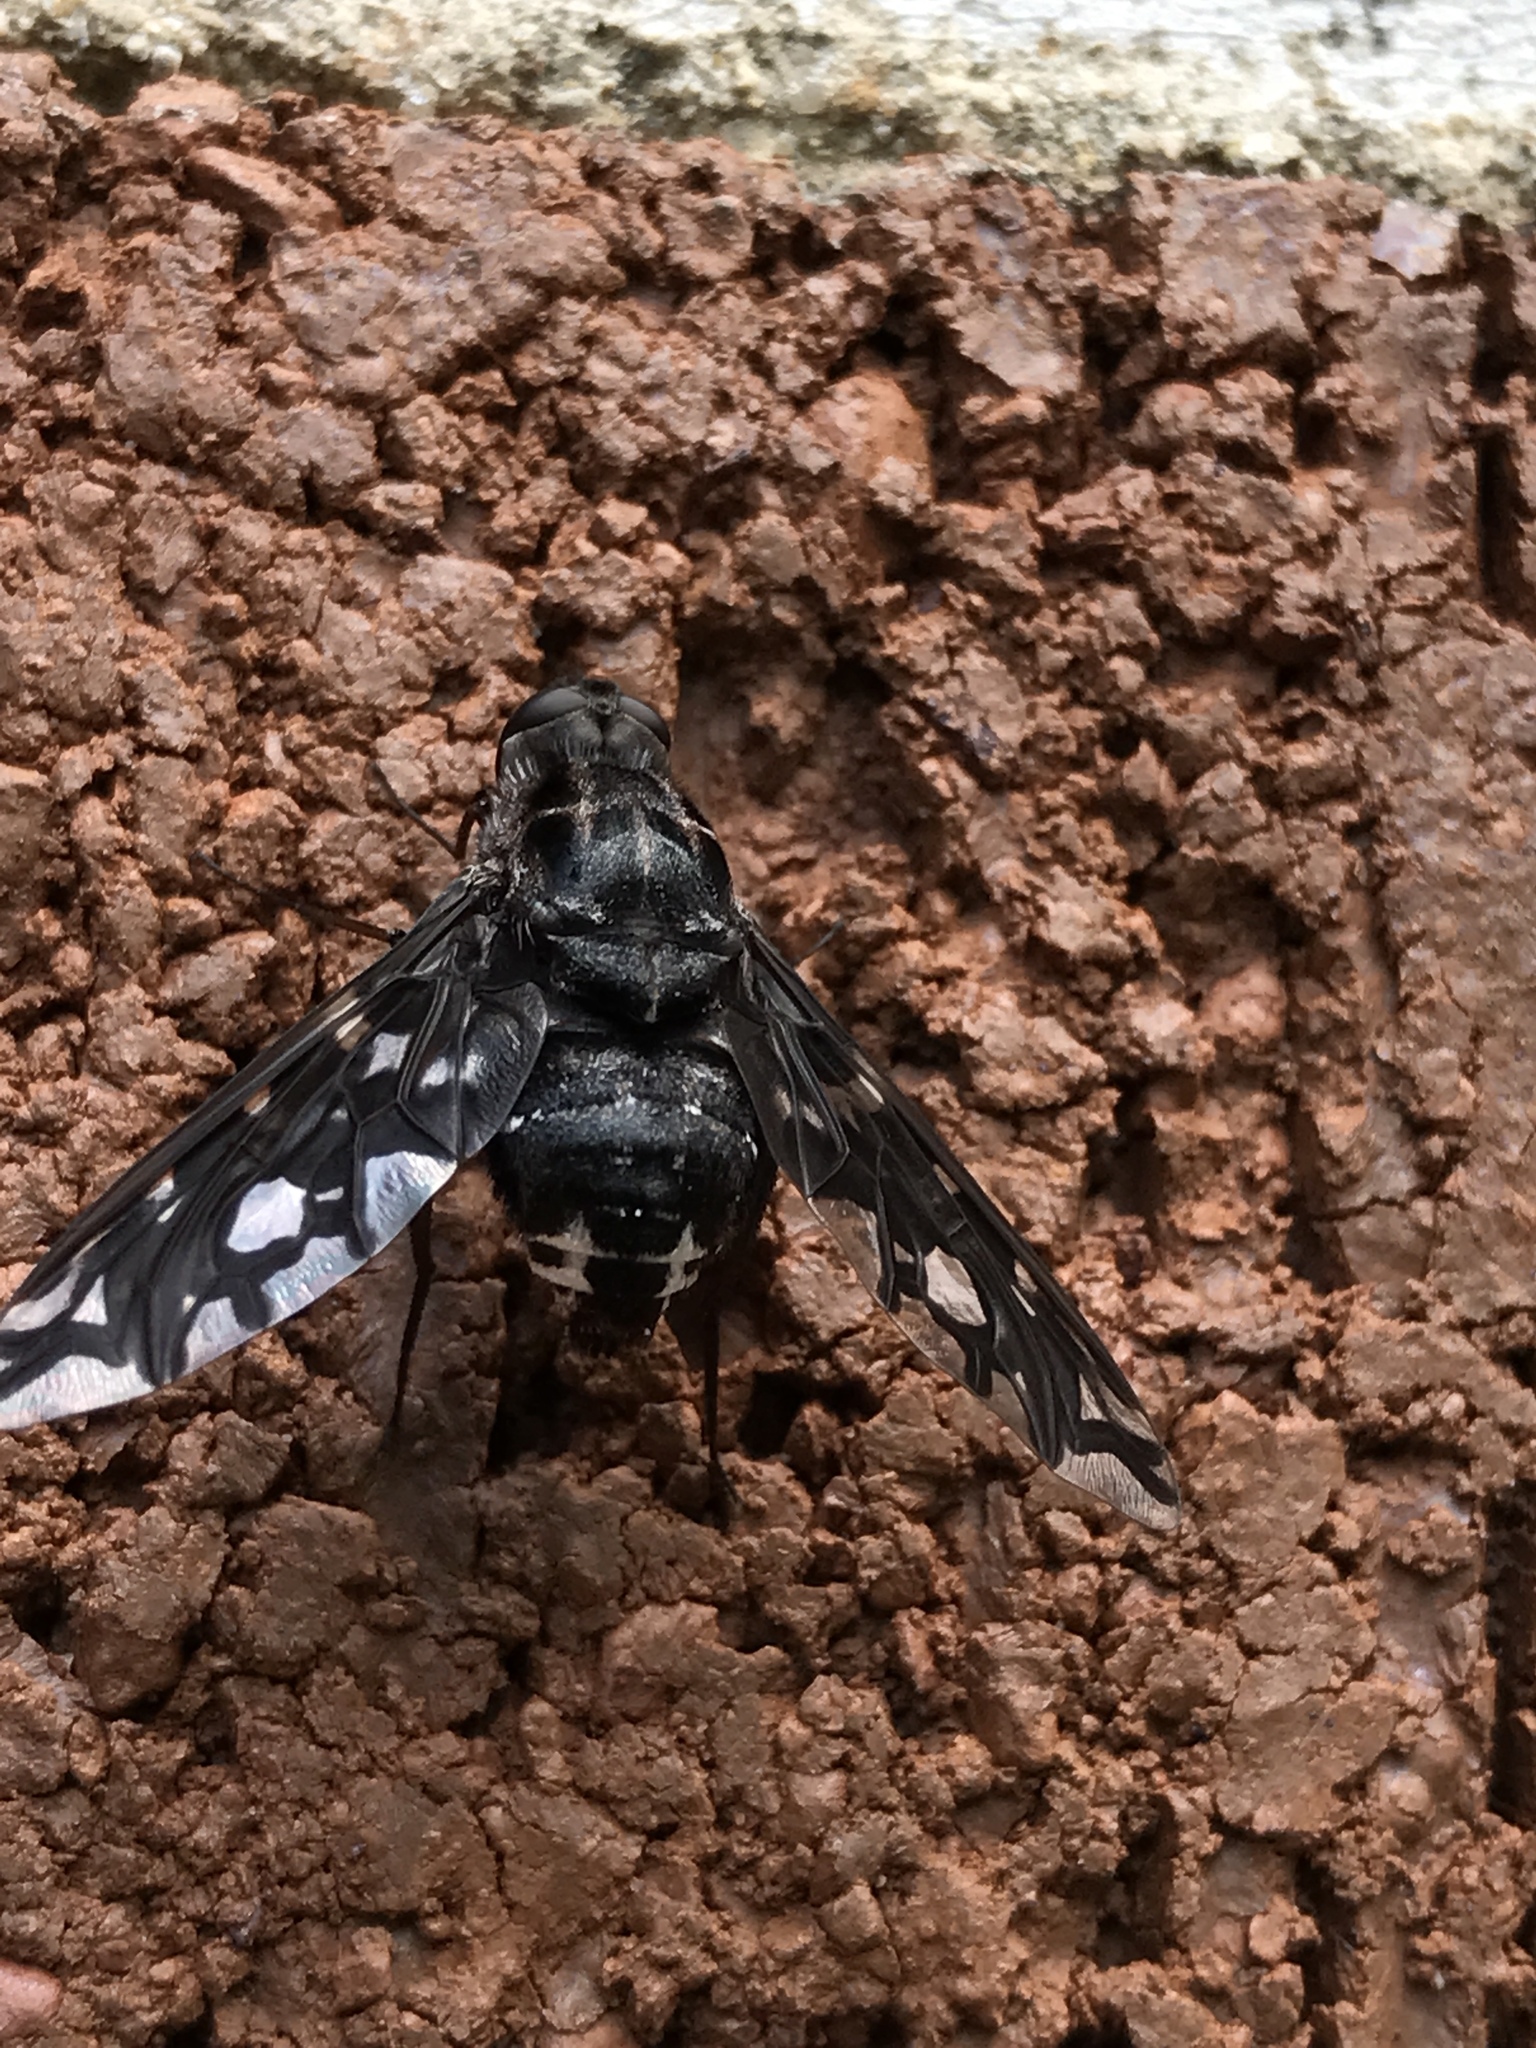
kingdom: Animalia
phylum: Arthropoda
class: Insecta
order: Diptera
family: Bombyliidae
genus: Xenox
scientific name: Xenox tigrinus
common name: Tiger bee fly
